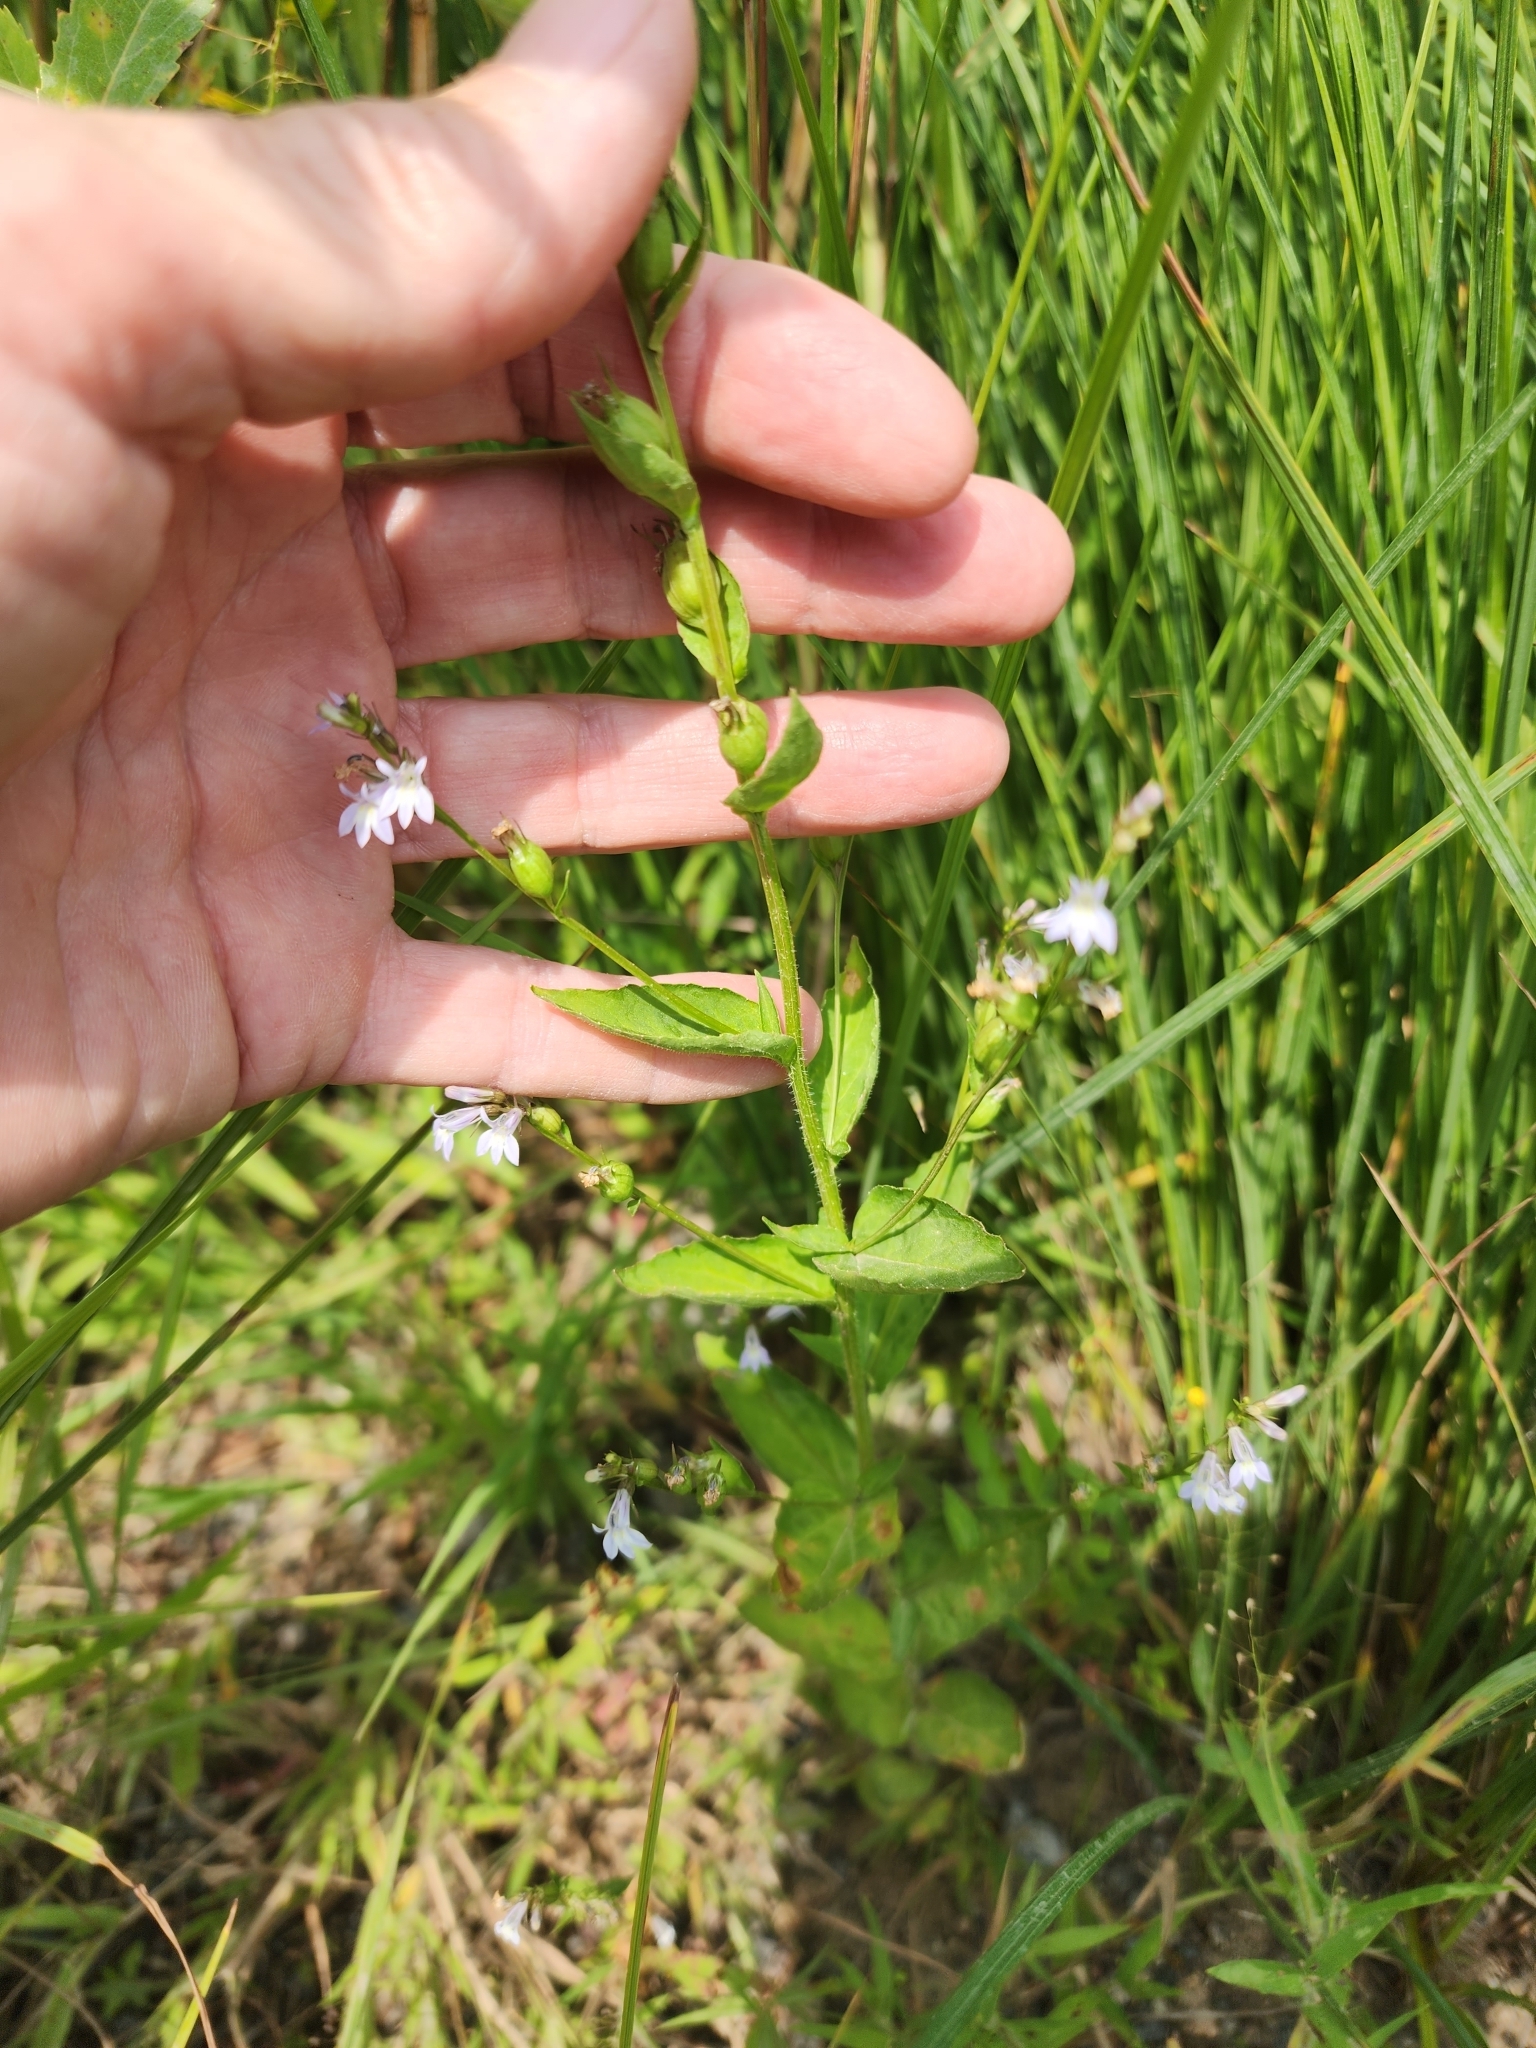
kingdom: Plantae
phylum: Tracheophyta
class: Magnoliopsida
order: Asterales
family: Campanulaceae
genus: Lobelia
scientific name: Lobelia inflata
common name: Indian tobacco
